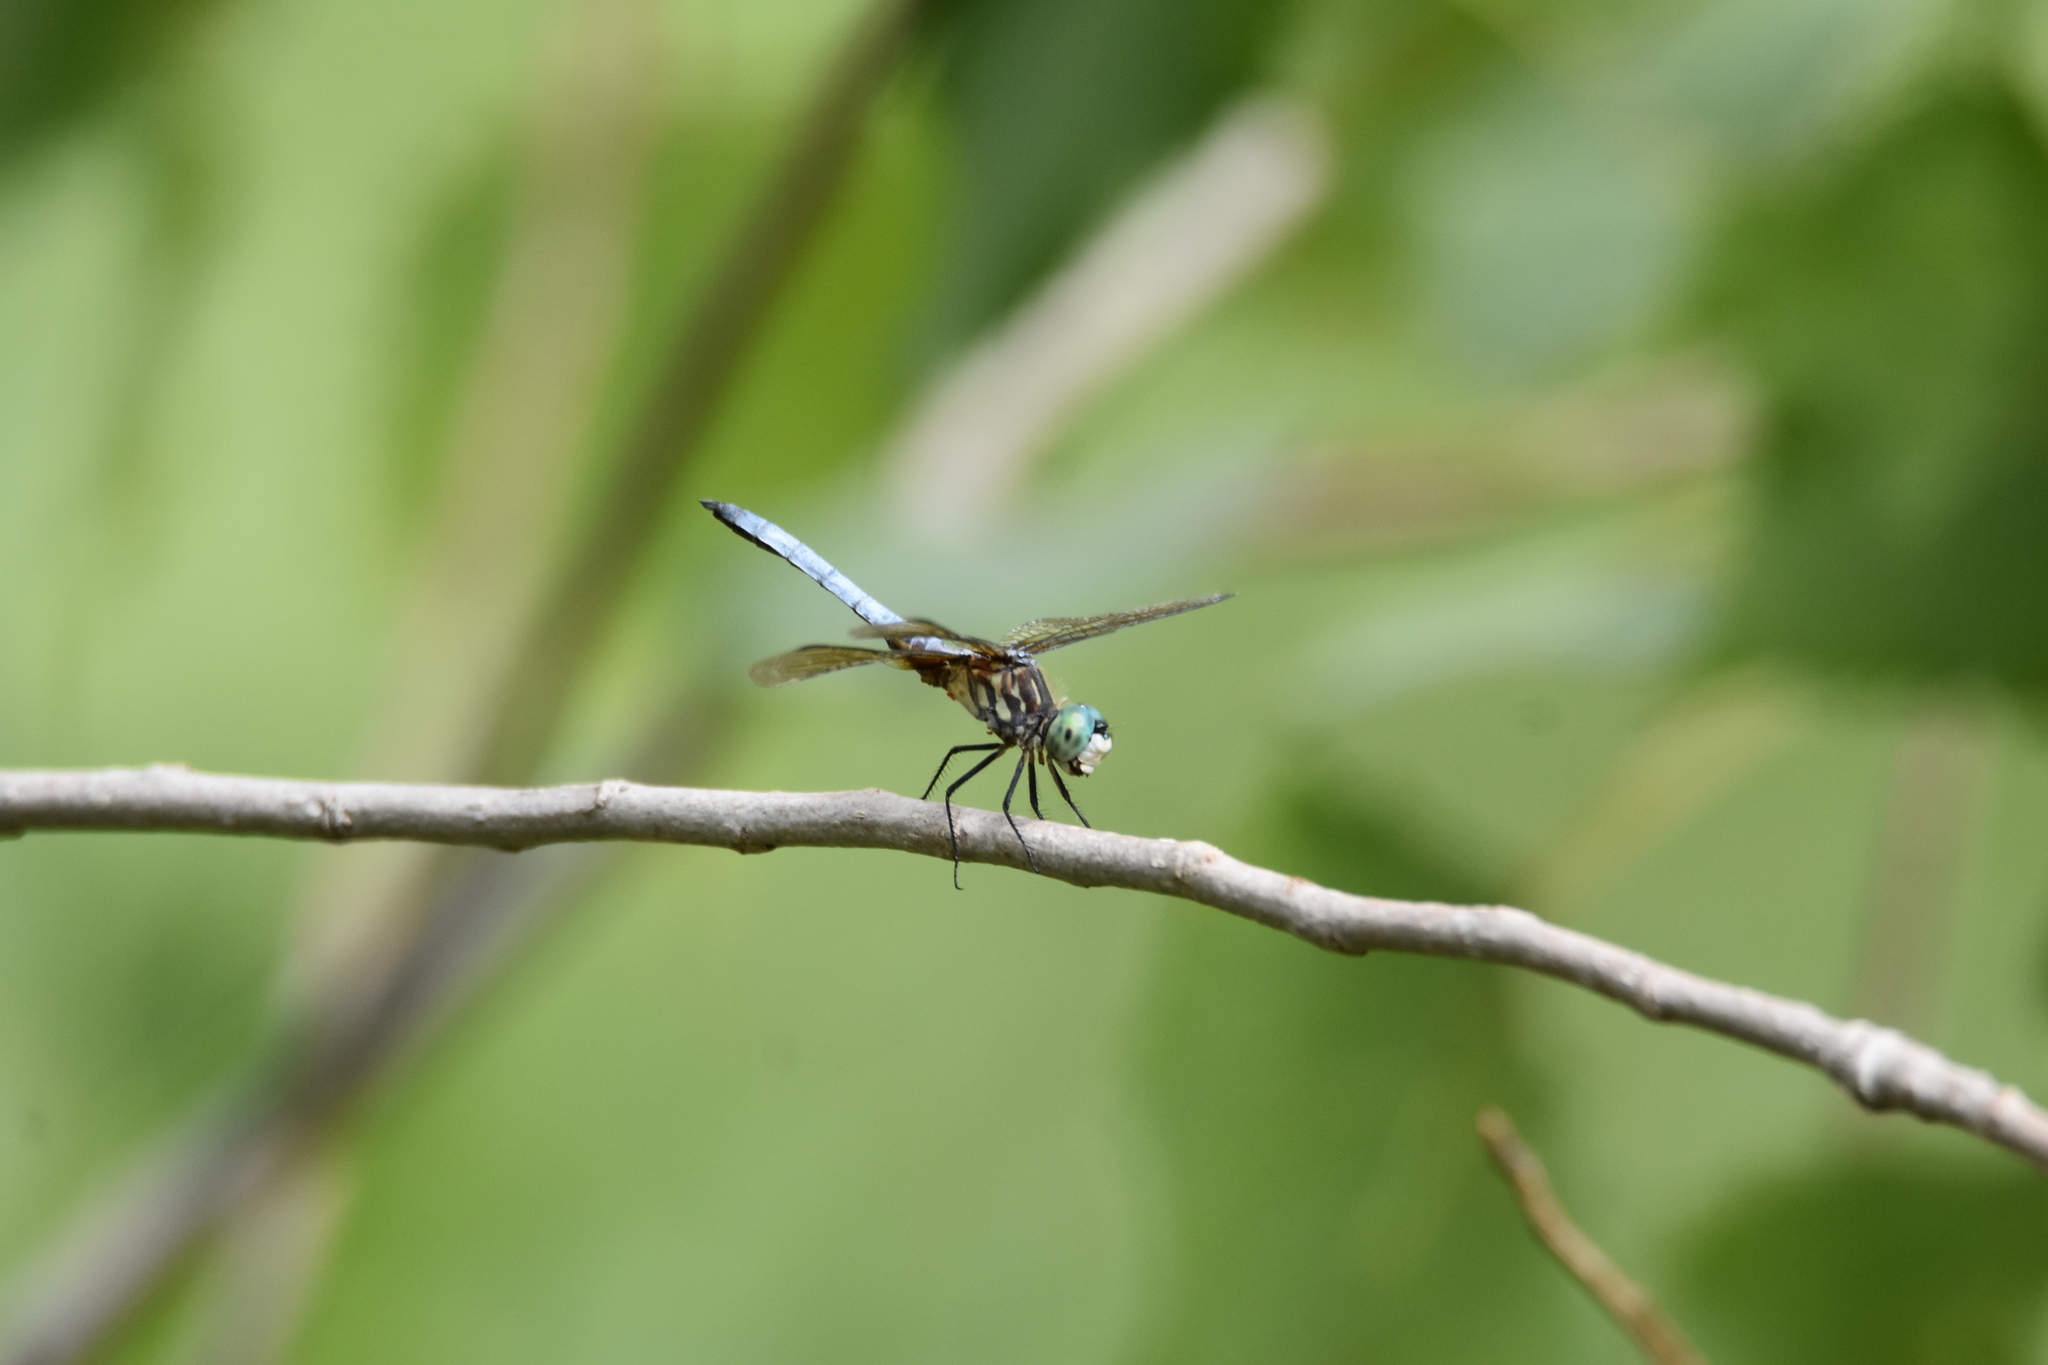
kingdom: Animalia
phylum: Arthropoda
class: Insecta
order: Odonata
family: Libellulidae
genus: Pachydiplax
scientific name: Pachydiplax longipennis
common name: Blue dasher
